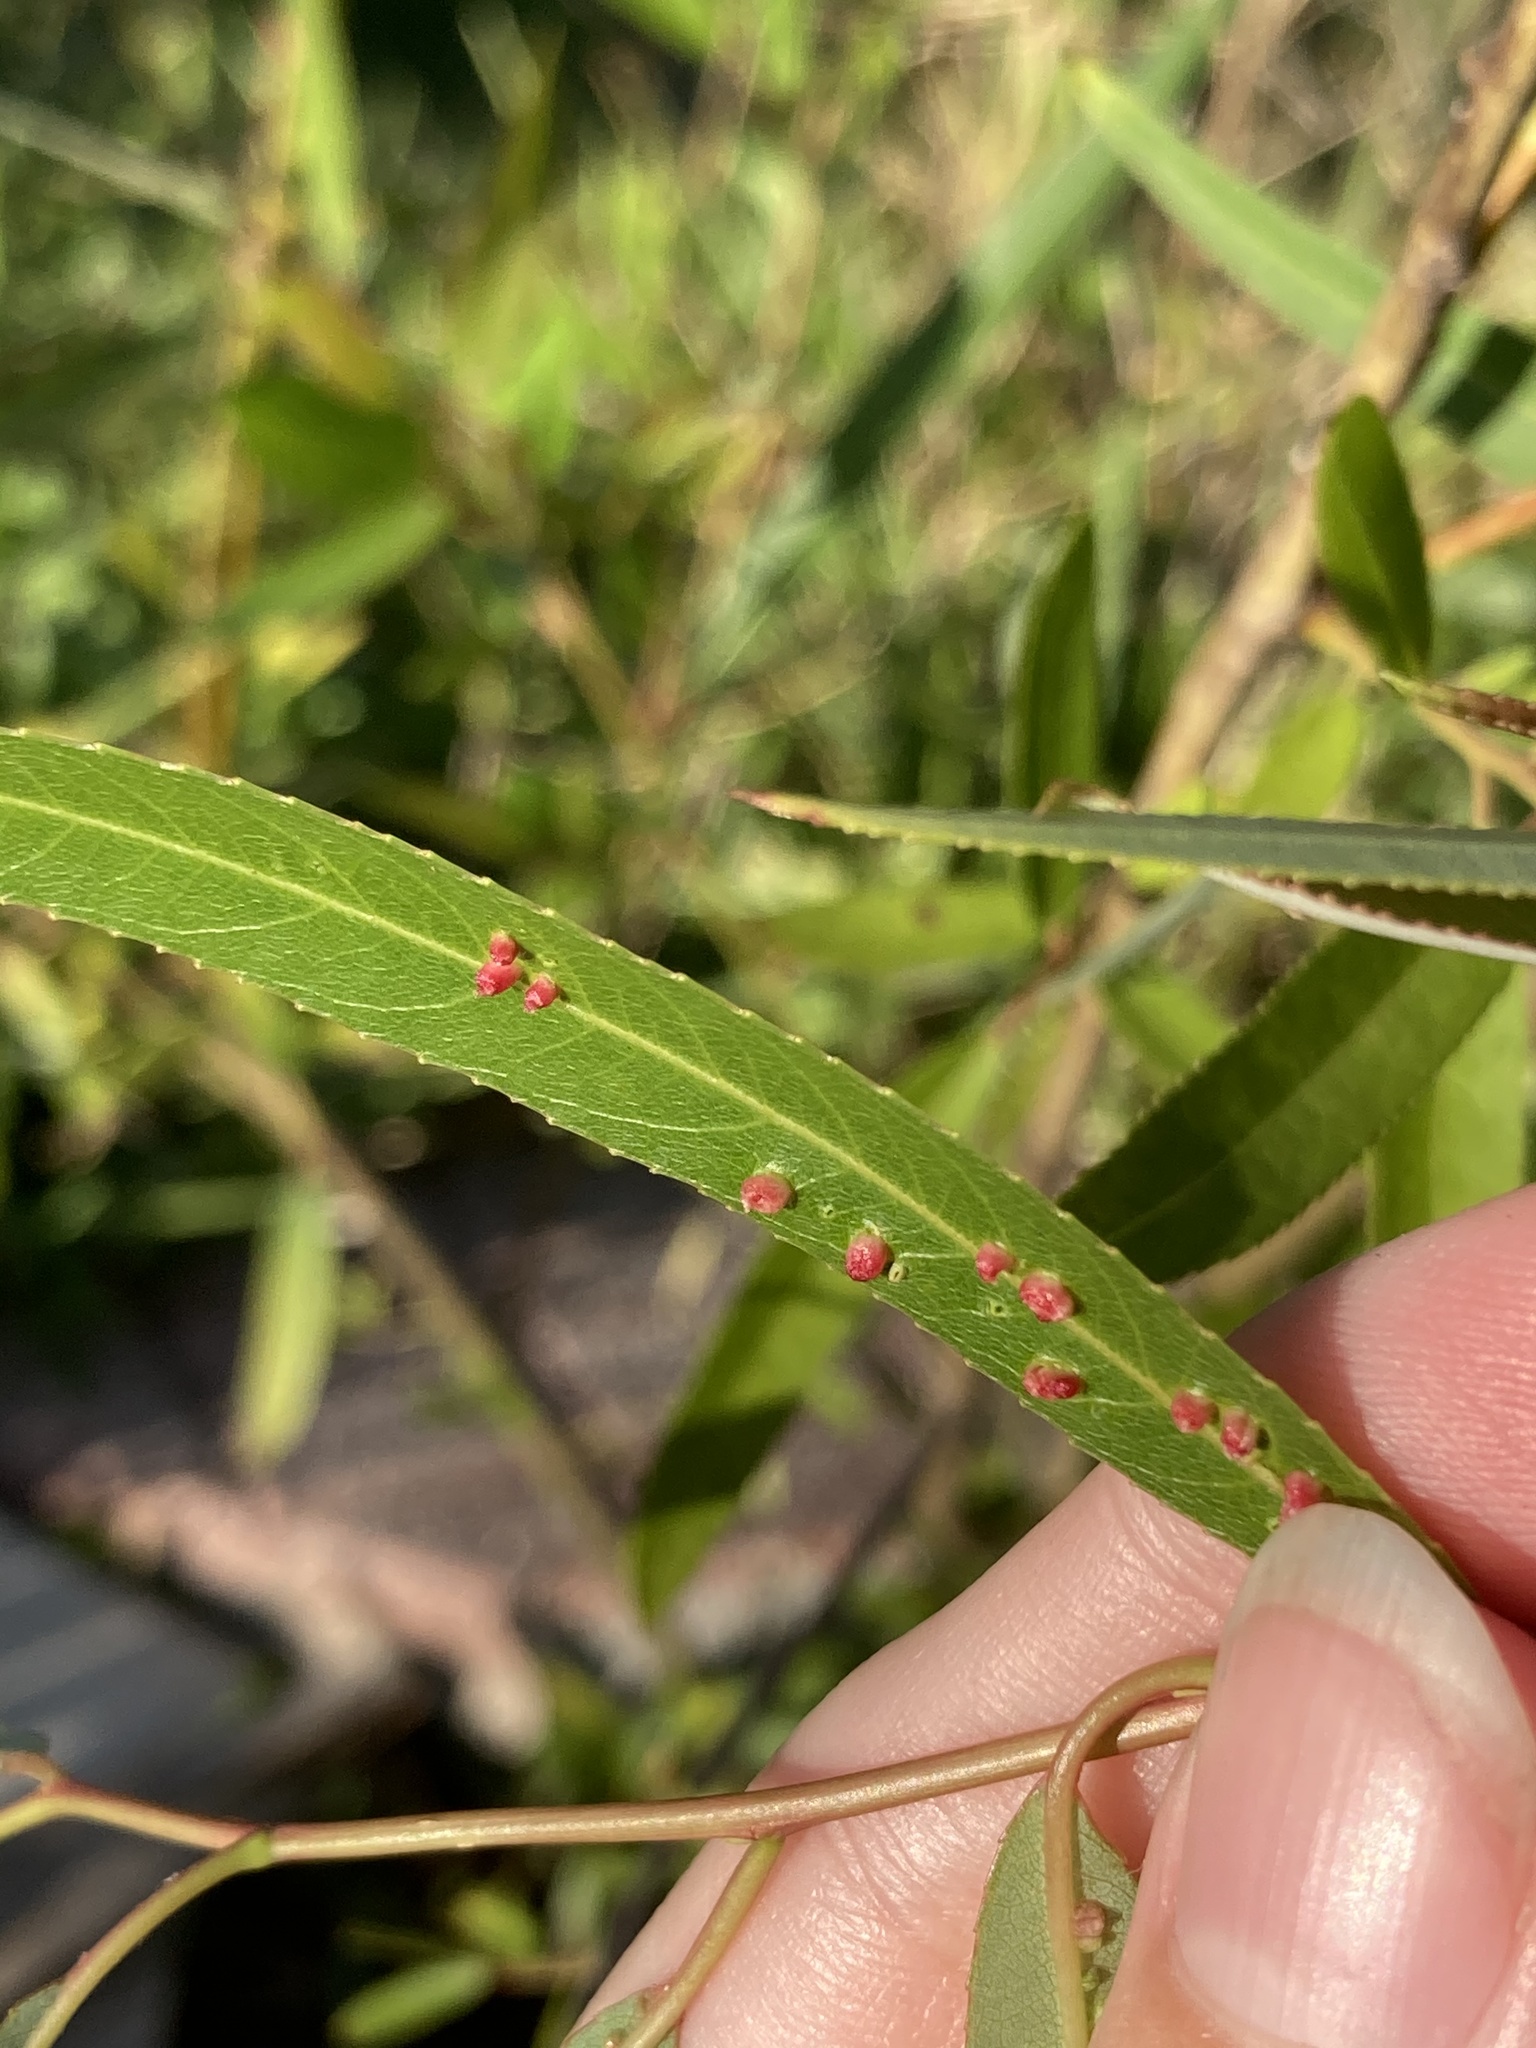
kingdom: Animalia
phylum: Arthropoda
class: Arachnida
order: Trombidiformes
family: Eriophyidae
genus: Aculus
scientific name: Aculus tetanothrix
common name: Willow bead gall mite
